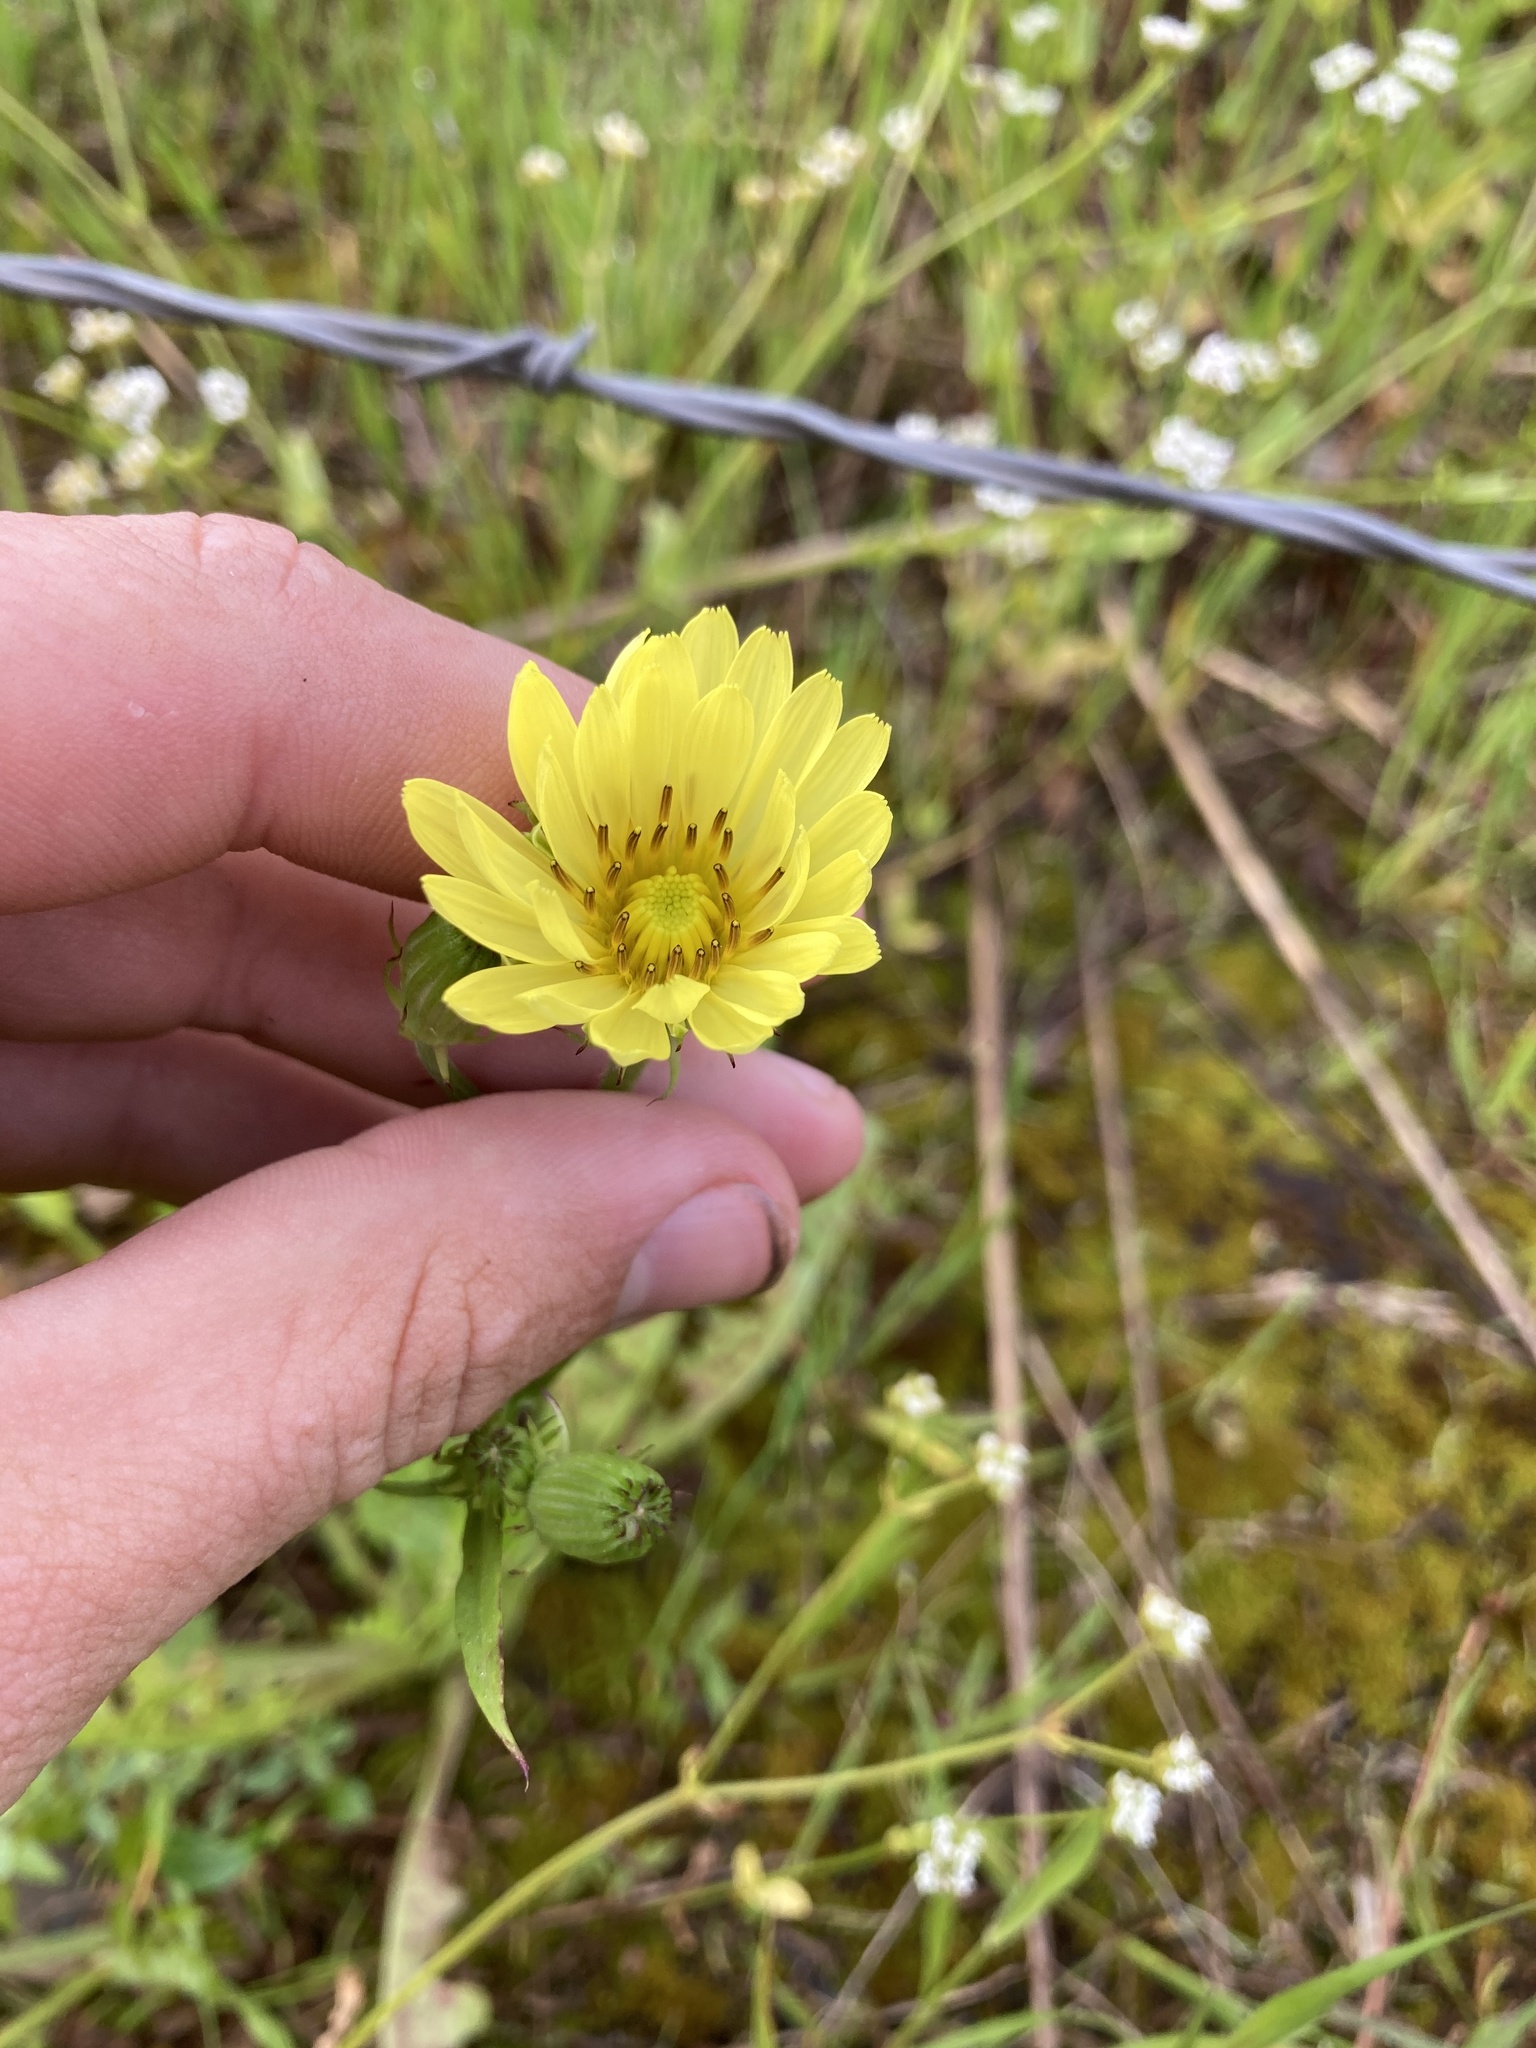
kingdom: Plantae
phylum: Tracheophyta
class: Magnoliopsida
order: Asterales
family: Asteraceae
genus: Pyrrhopappus
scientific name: Pyrrhopappus pauciflorus
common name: Texas false dandelion
